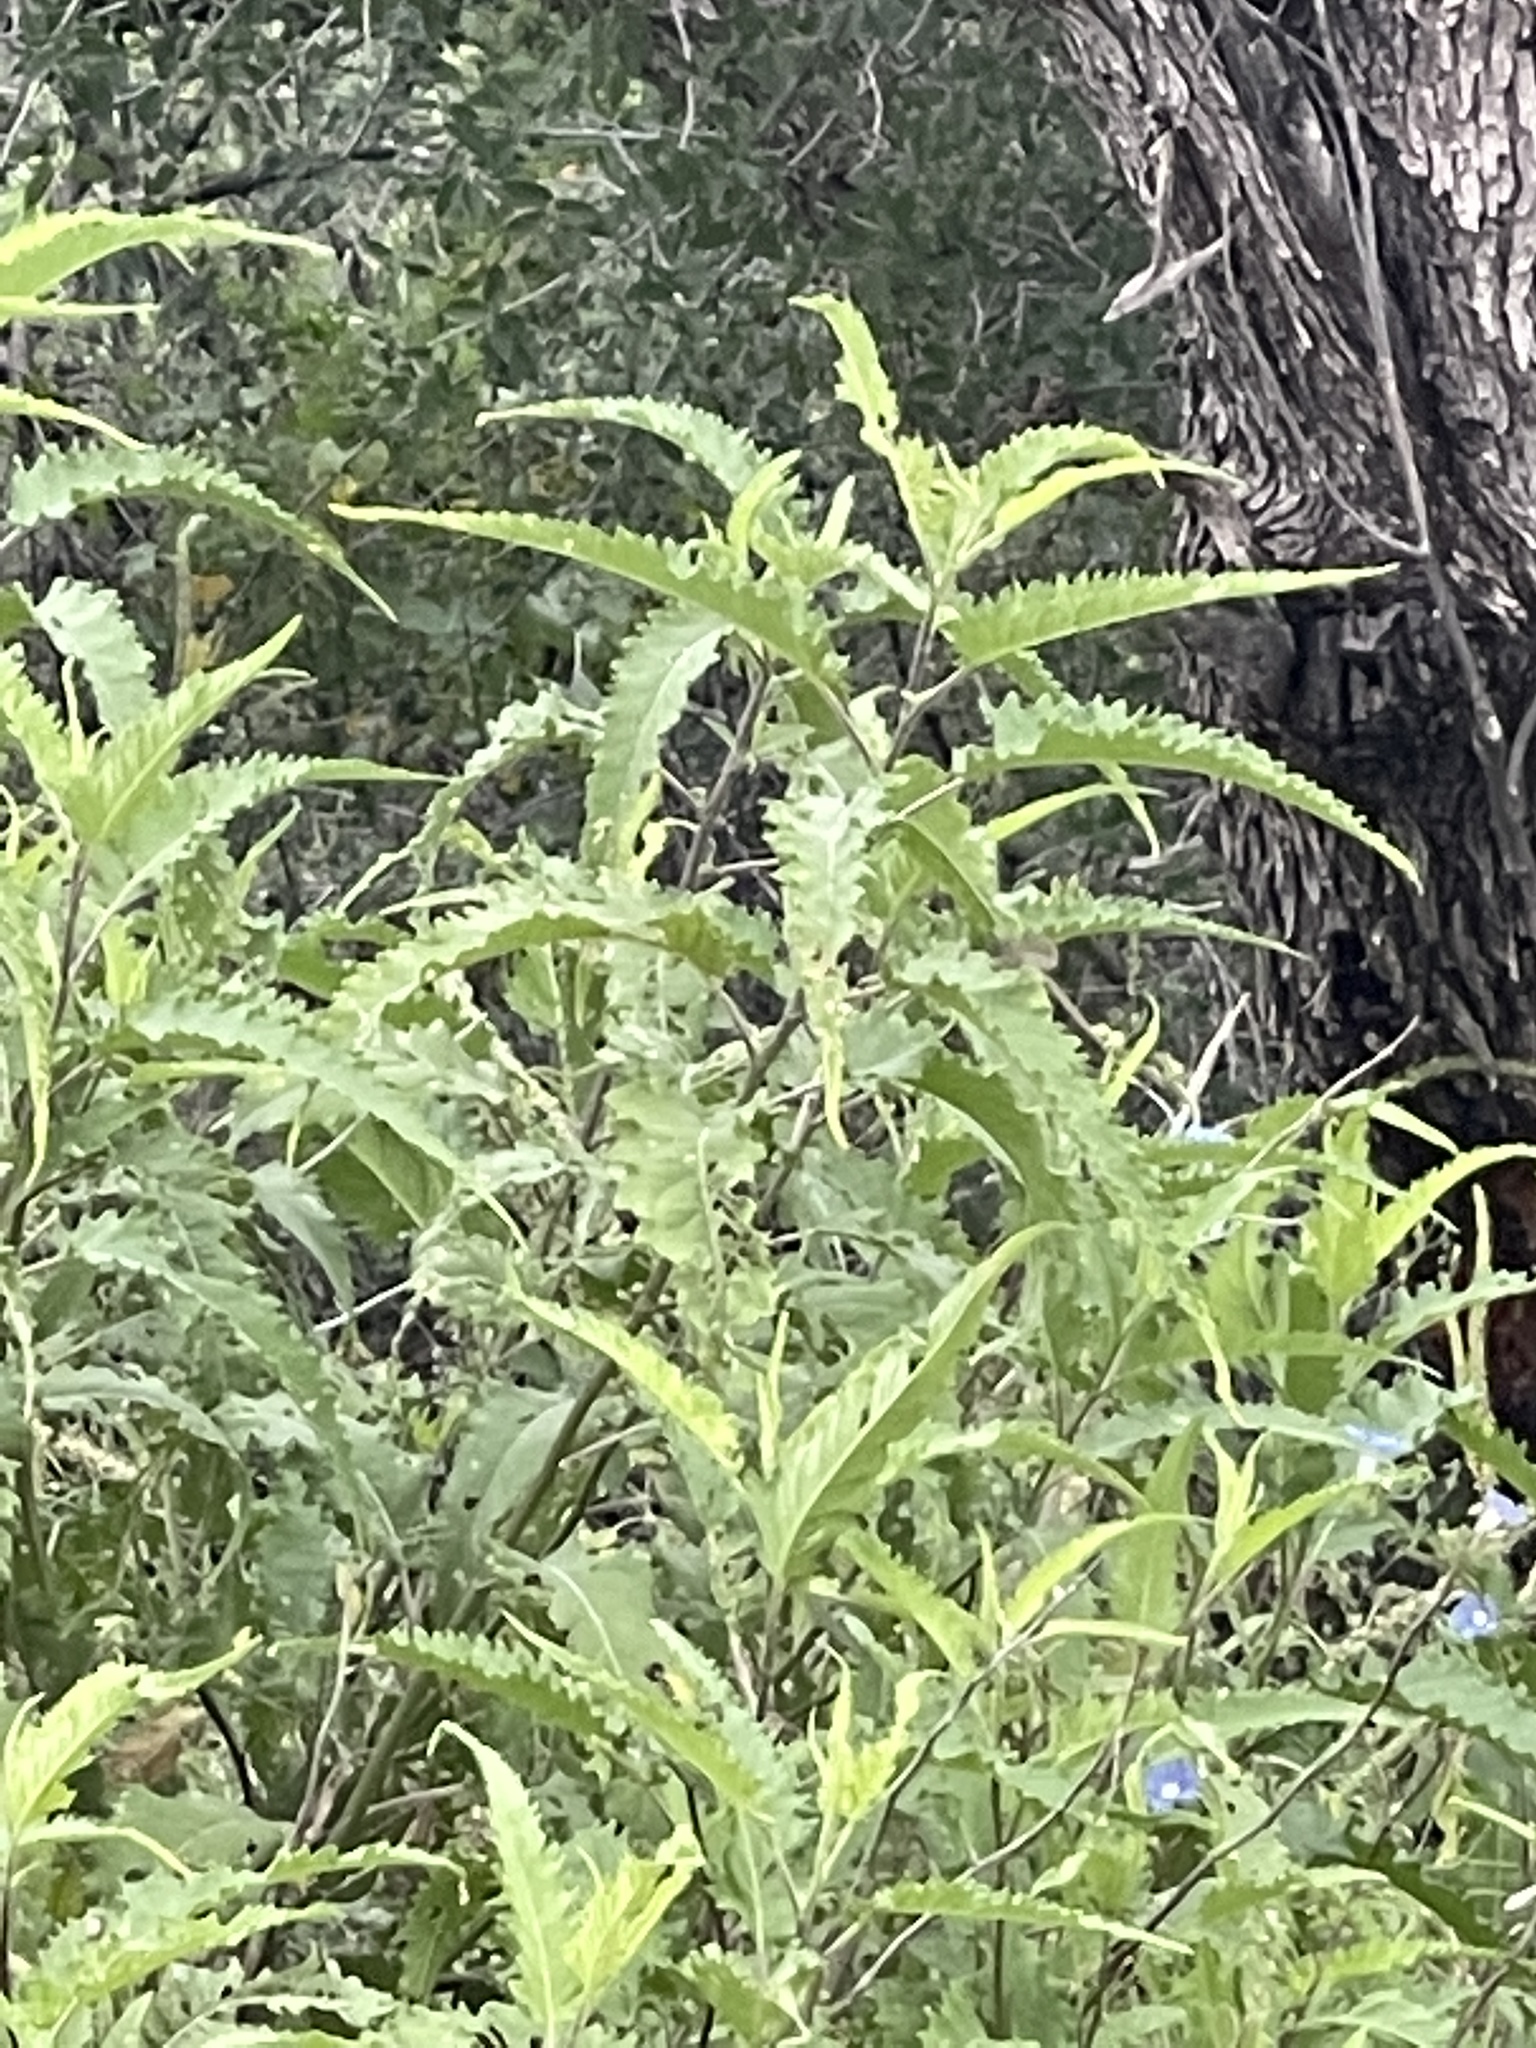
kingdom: Plantae
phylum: Tracheophyta
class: Magnoliopsida
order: Asterales
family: Asteraceae
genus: Ambrosia
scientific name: Ambrosia ambrosioides
